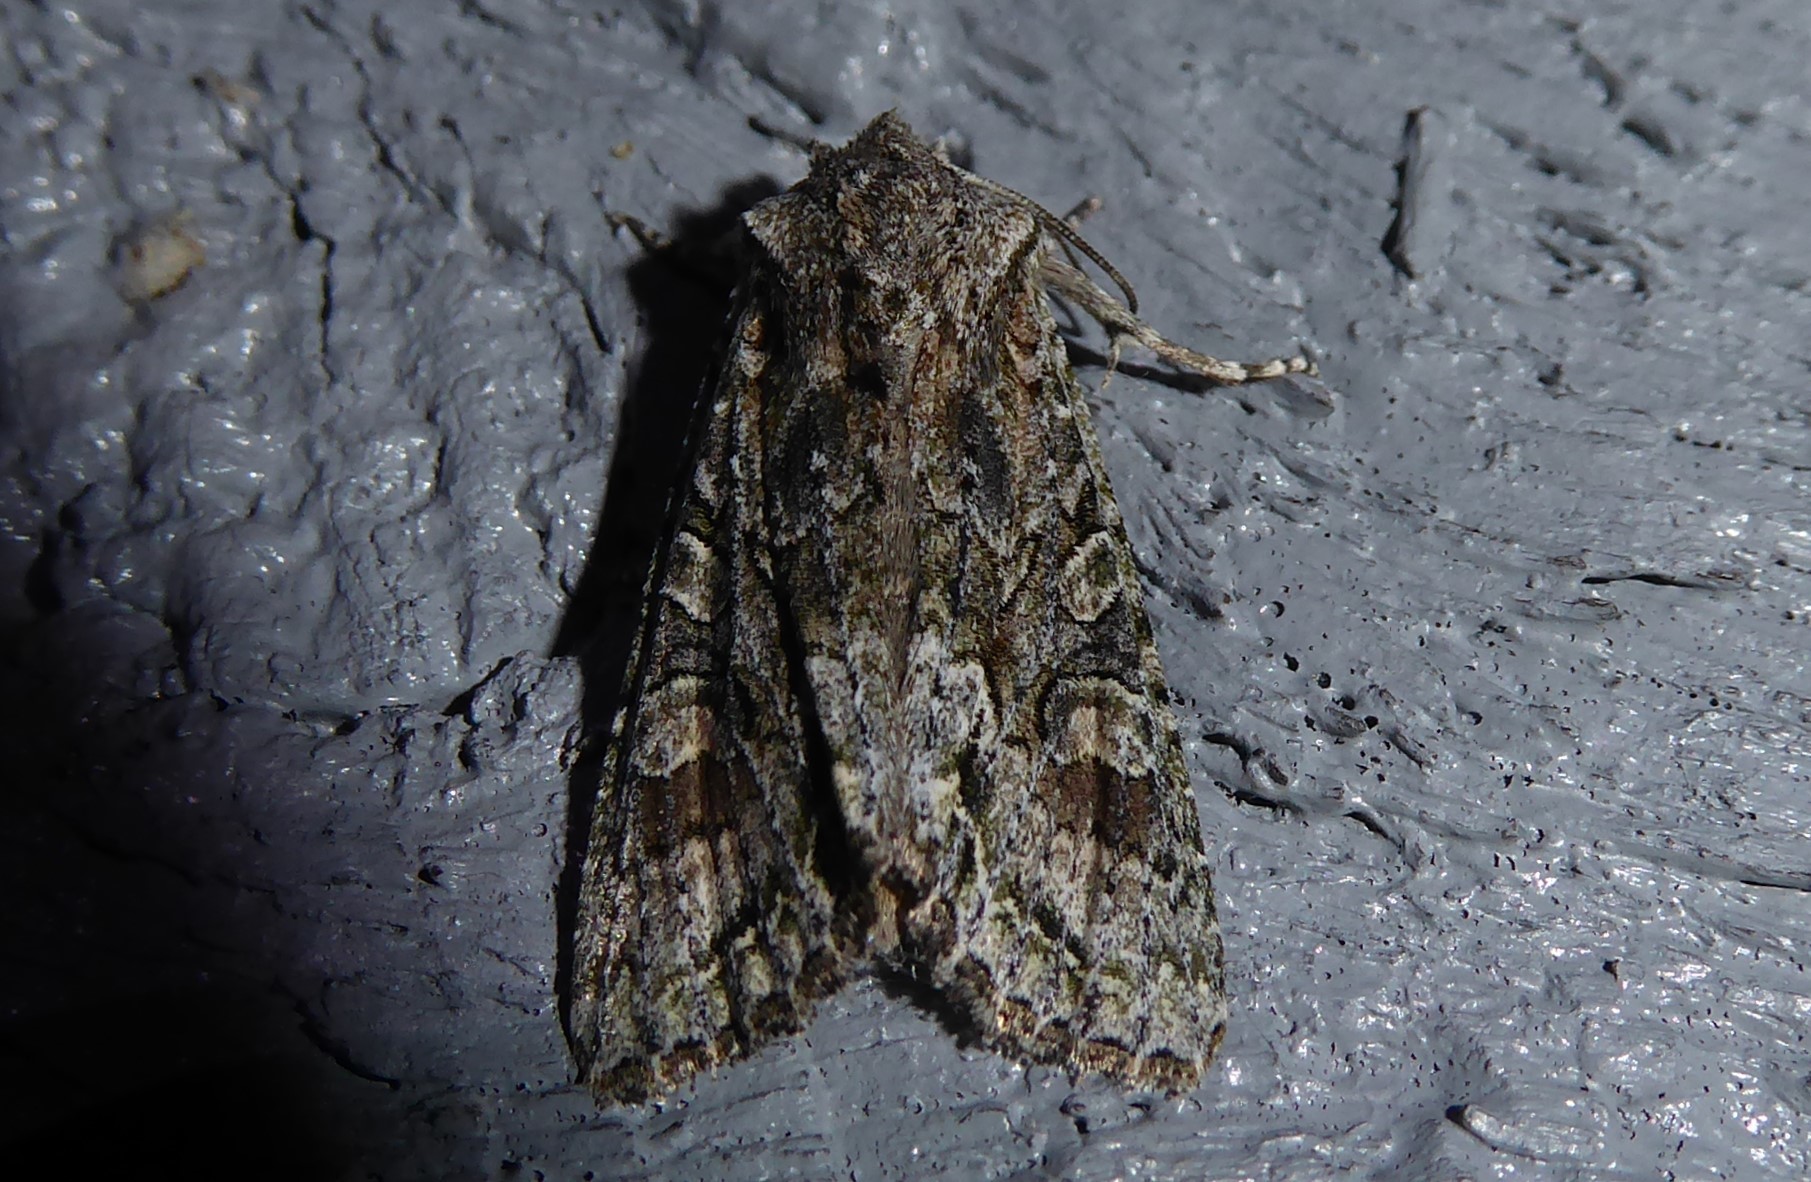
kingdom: Animalia
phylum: Arthropoda
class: Insecta
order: Lepidoptera
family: Noctuidae
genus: Ichneutica
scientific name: Ichneutica mutans
